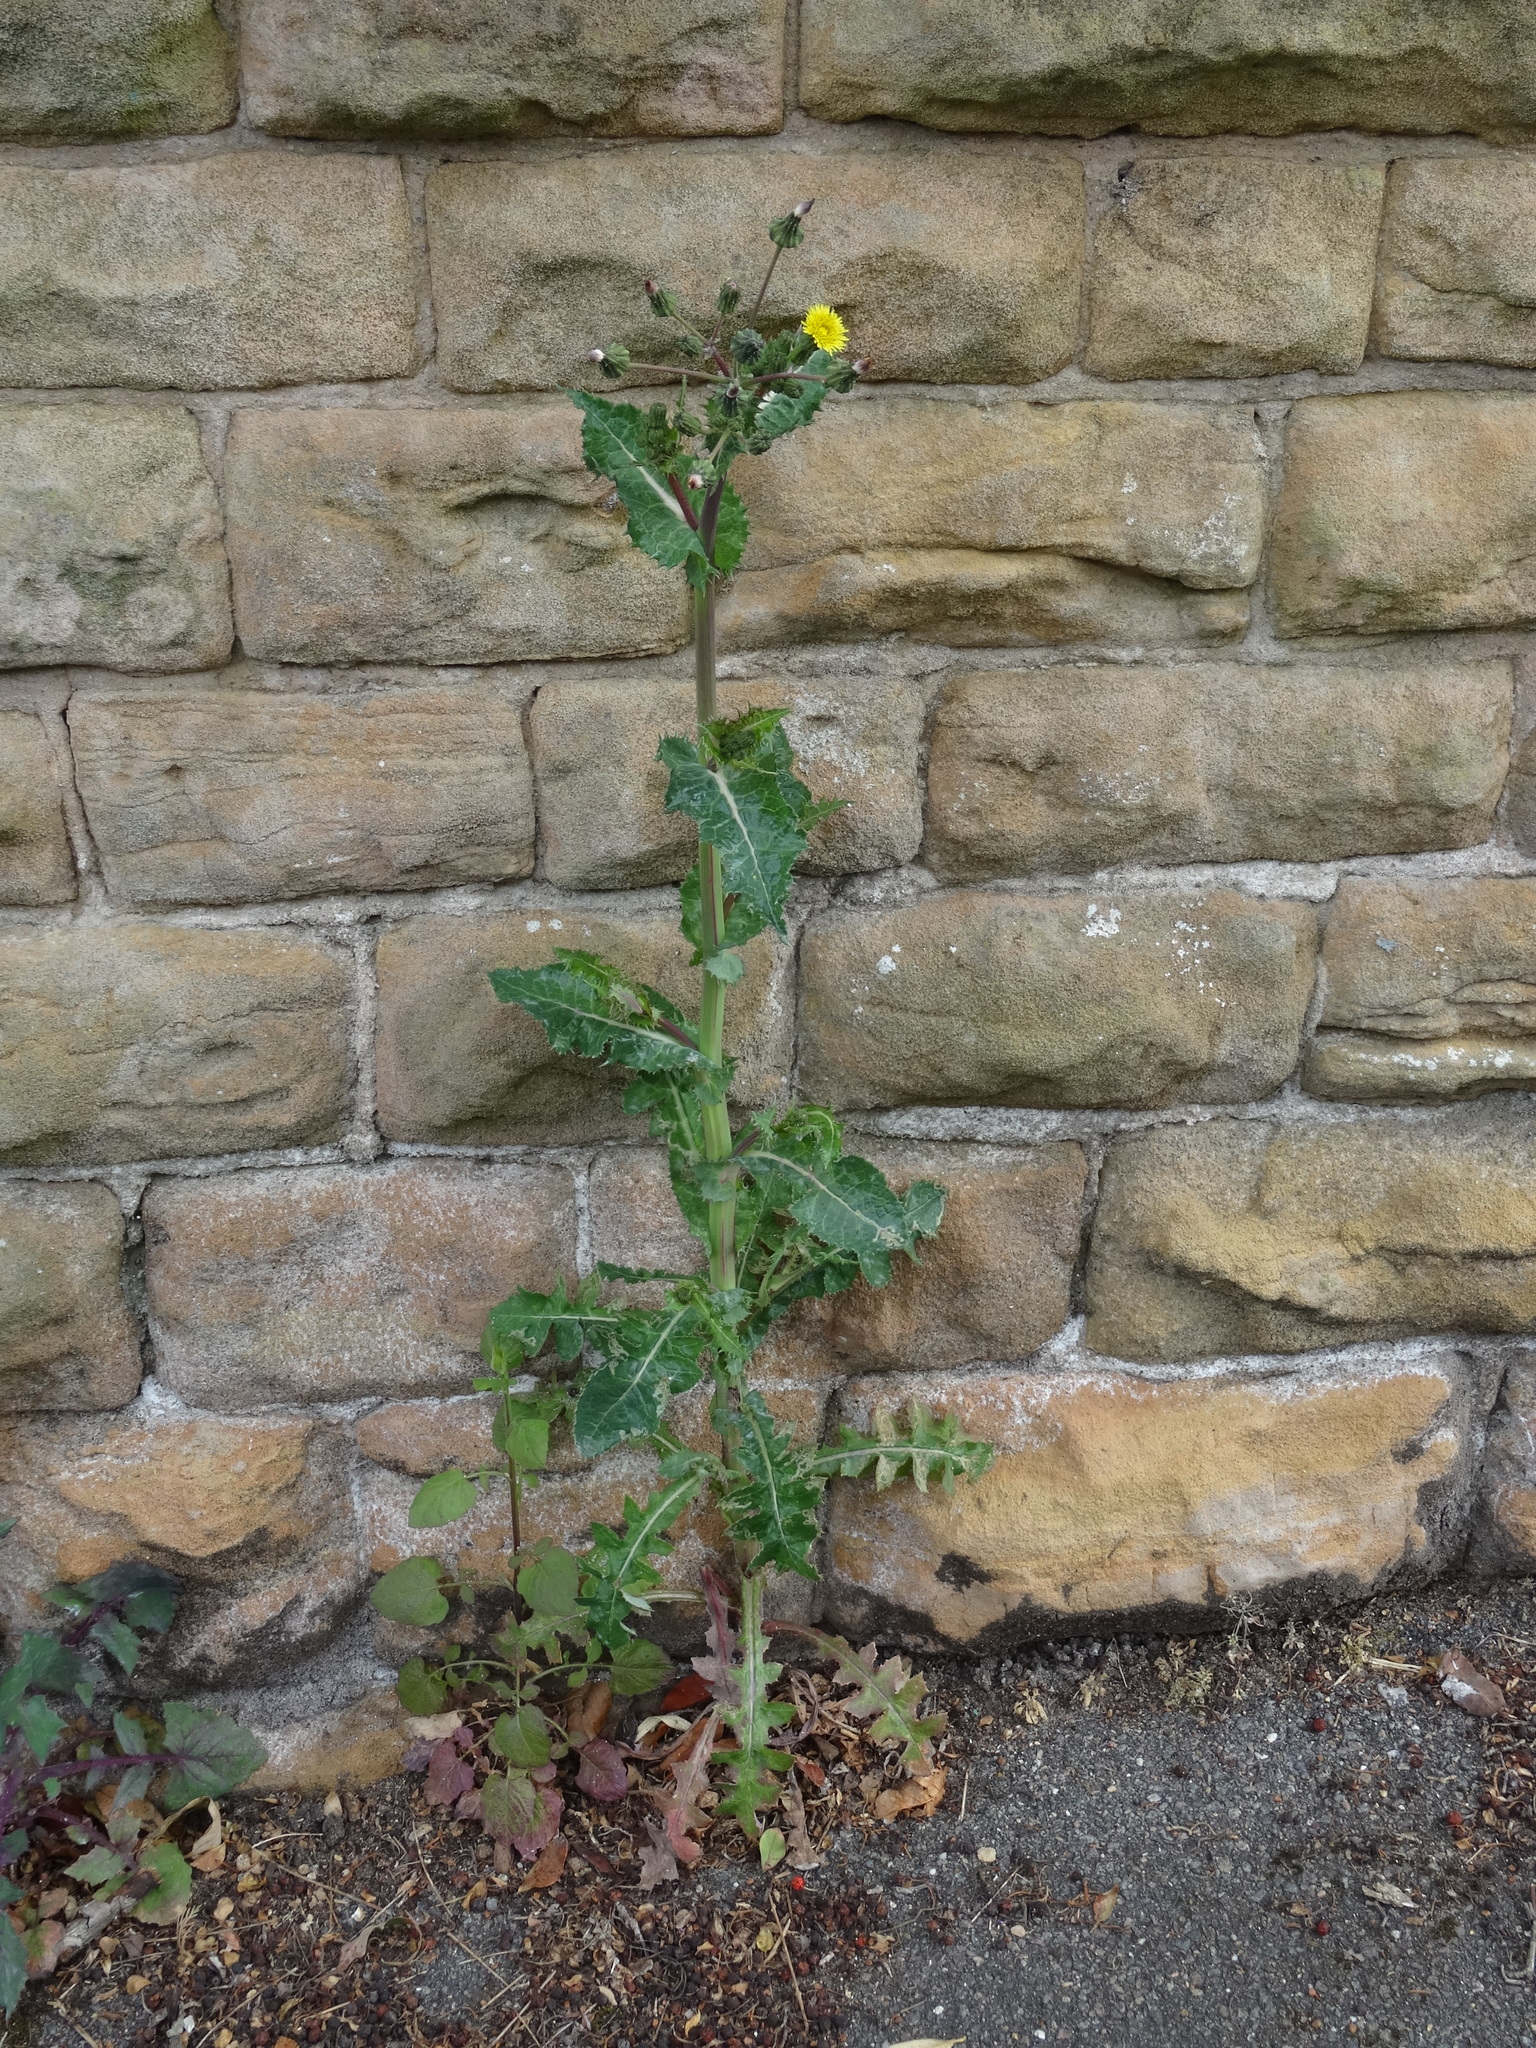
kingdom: Plantae
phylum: Tracheophyta
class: Magnoliopsida
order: Asterales
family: Asteraceae
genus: Sonchus
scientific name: Sonchus asper
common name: Prickly sow-thistle
